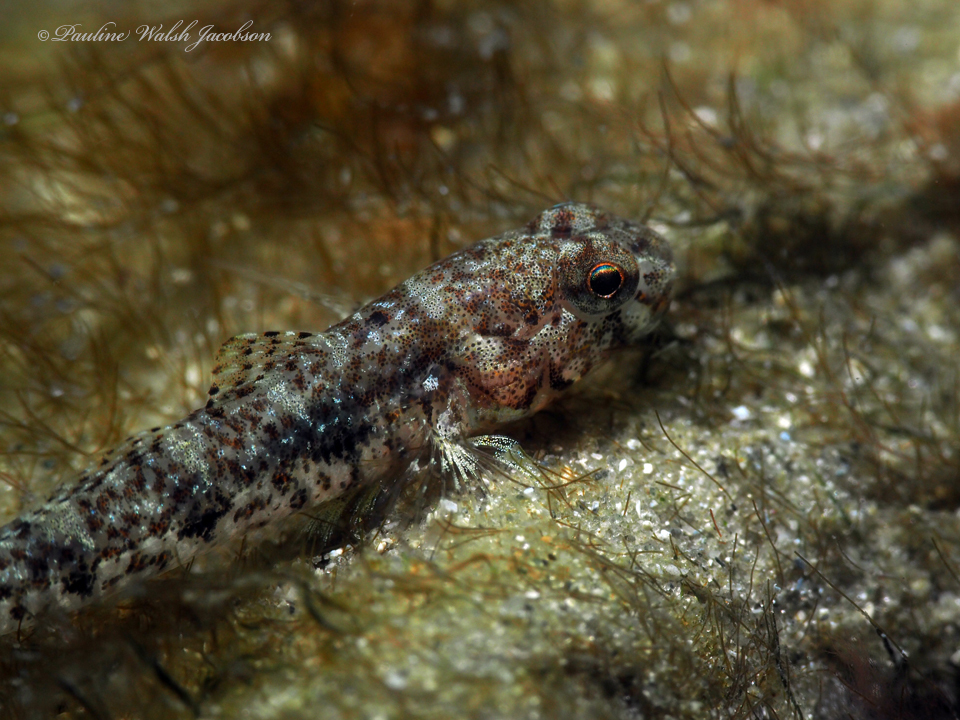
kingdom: Animalia
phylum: Chordata
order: Perciformes
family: Gobiidae
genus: Ctenogobius
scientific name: Ctenogobius stigmaturus
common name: Spottail goby
